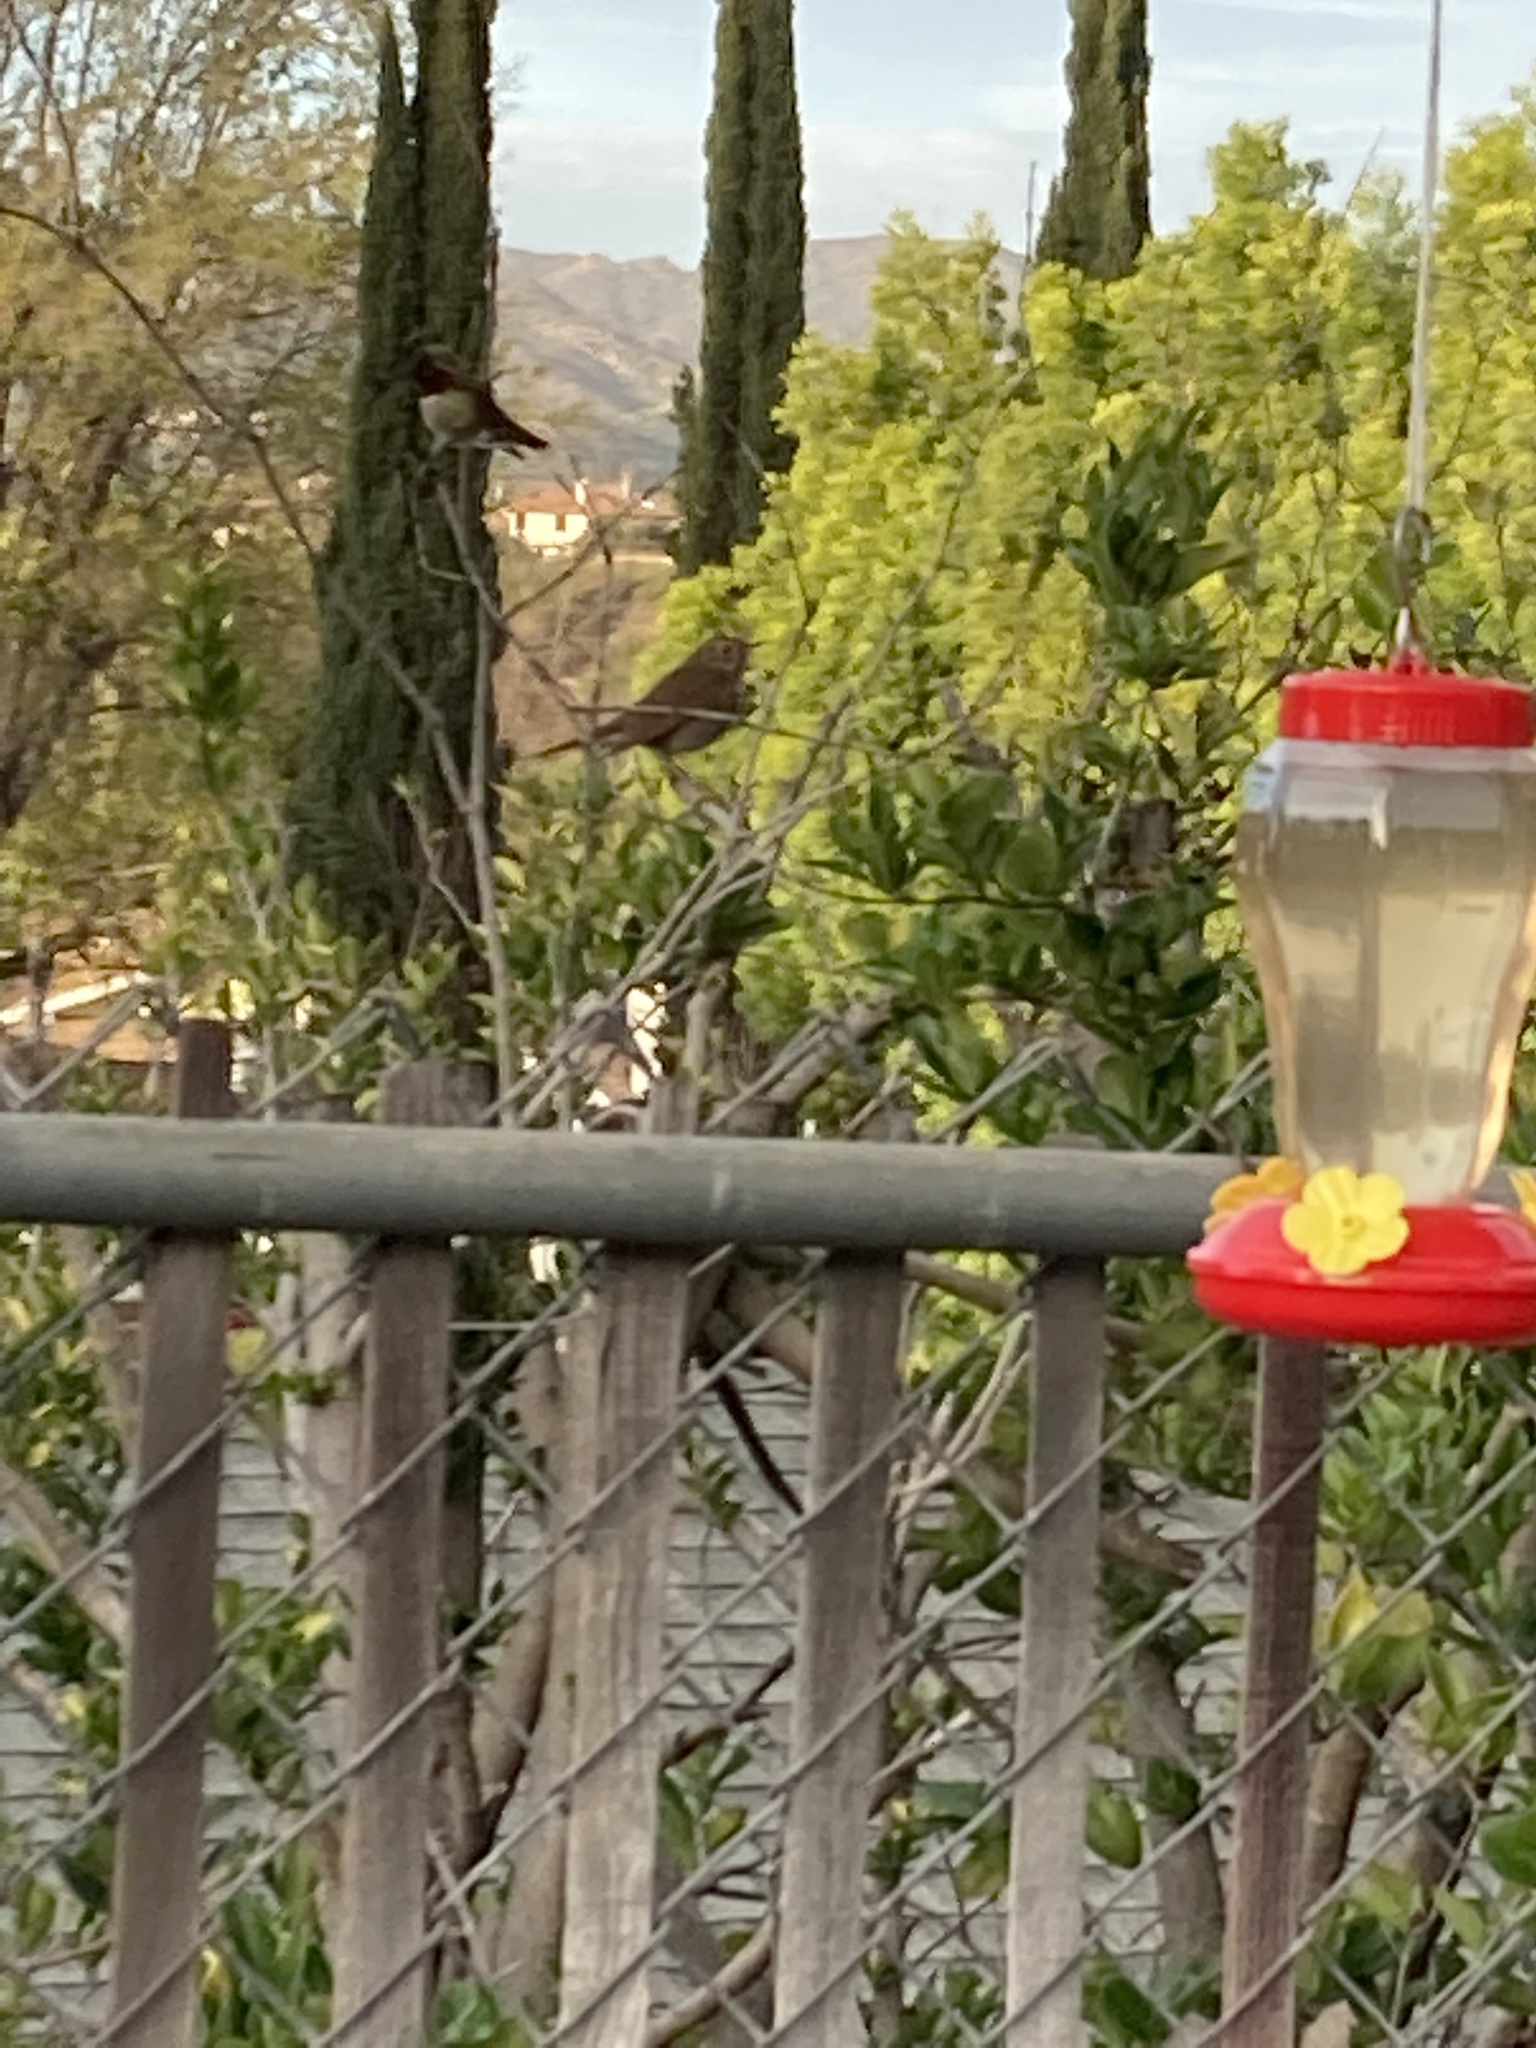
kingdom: Animalia
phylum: Chordata
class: Aves
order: Passeriformes
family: Turdidae
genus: Catharus
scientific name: Catharus guttatus
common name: Hermit thrush
